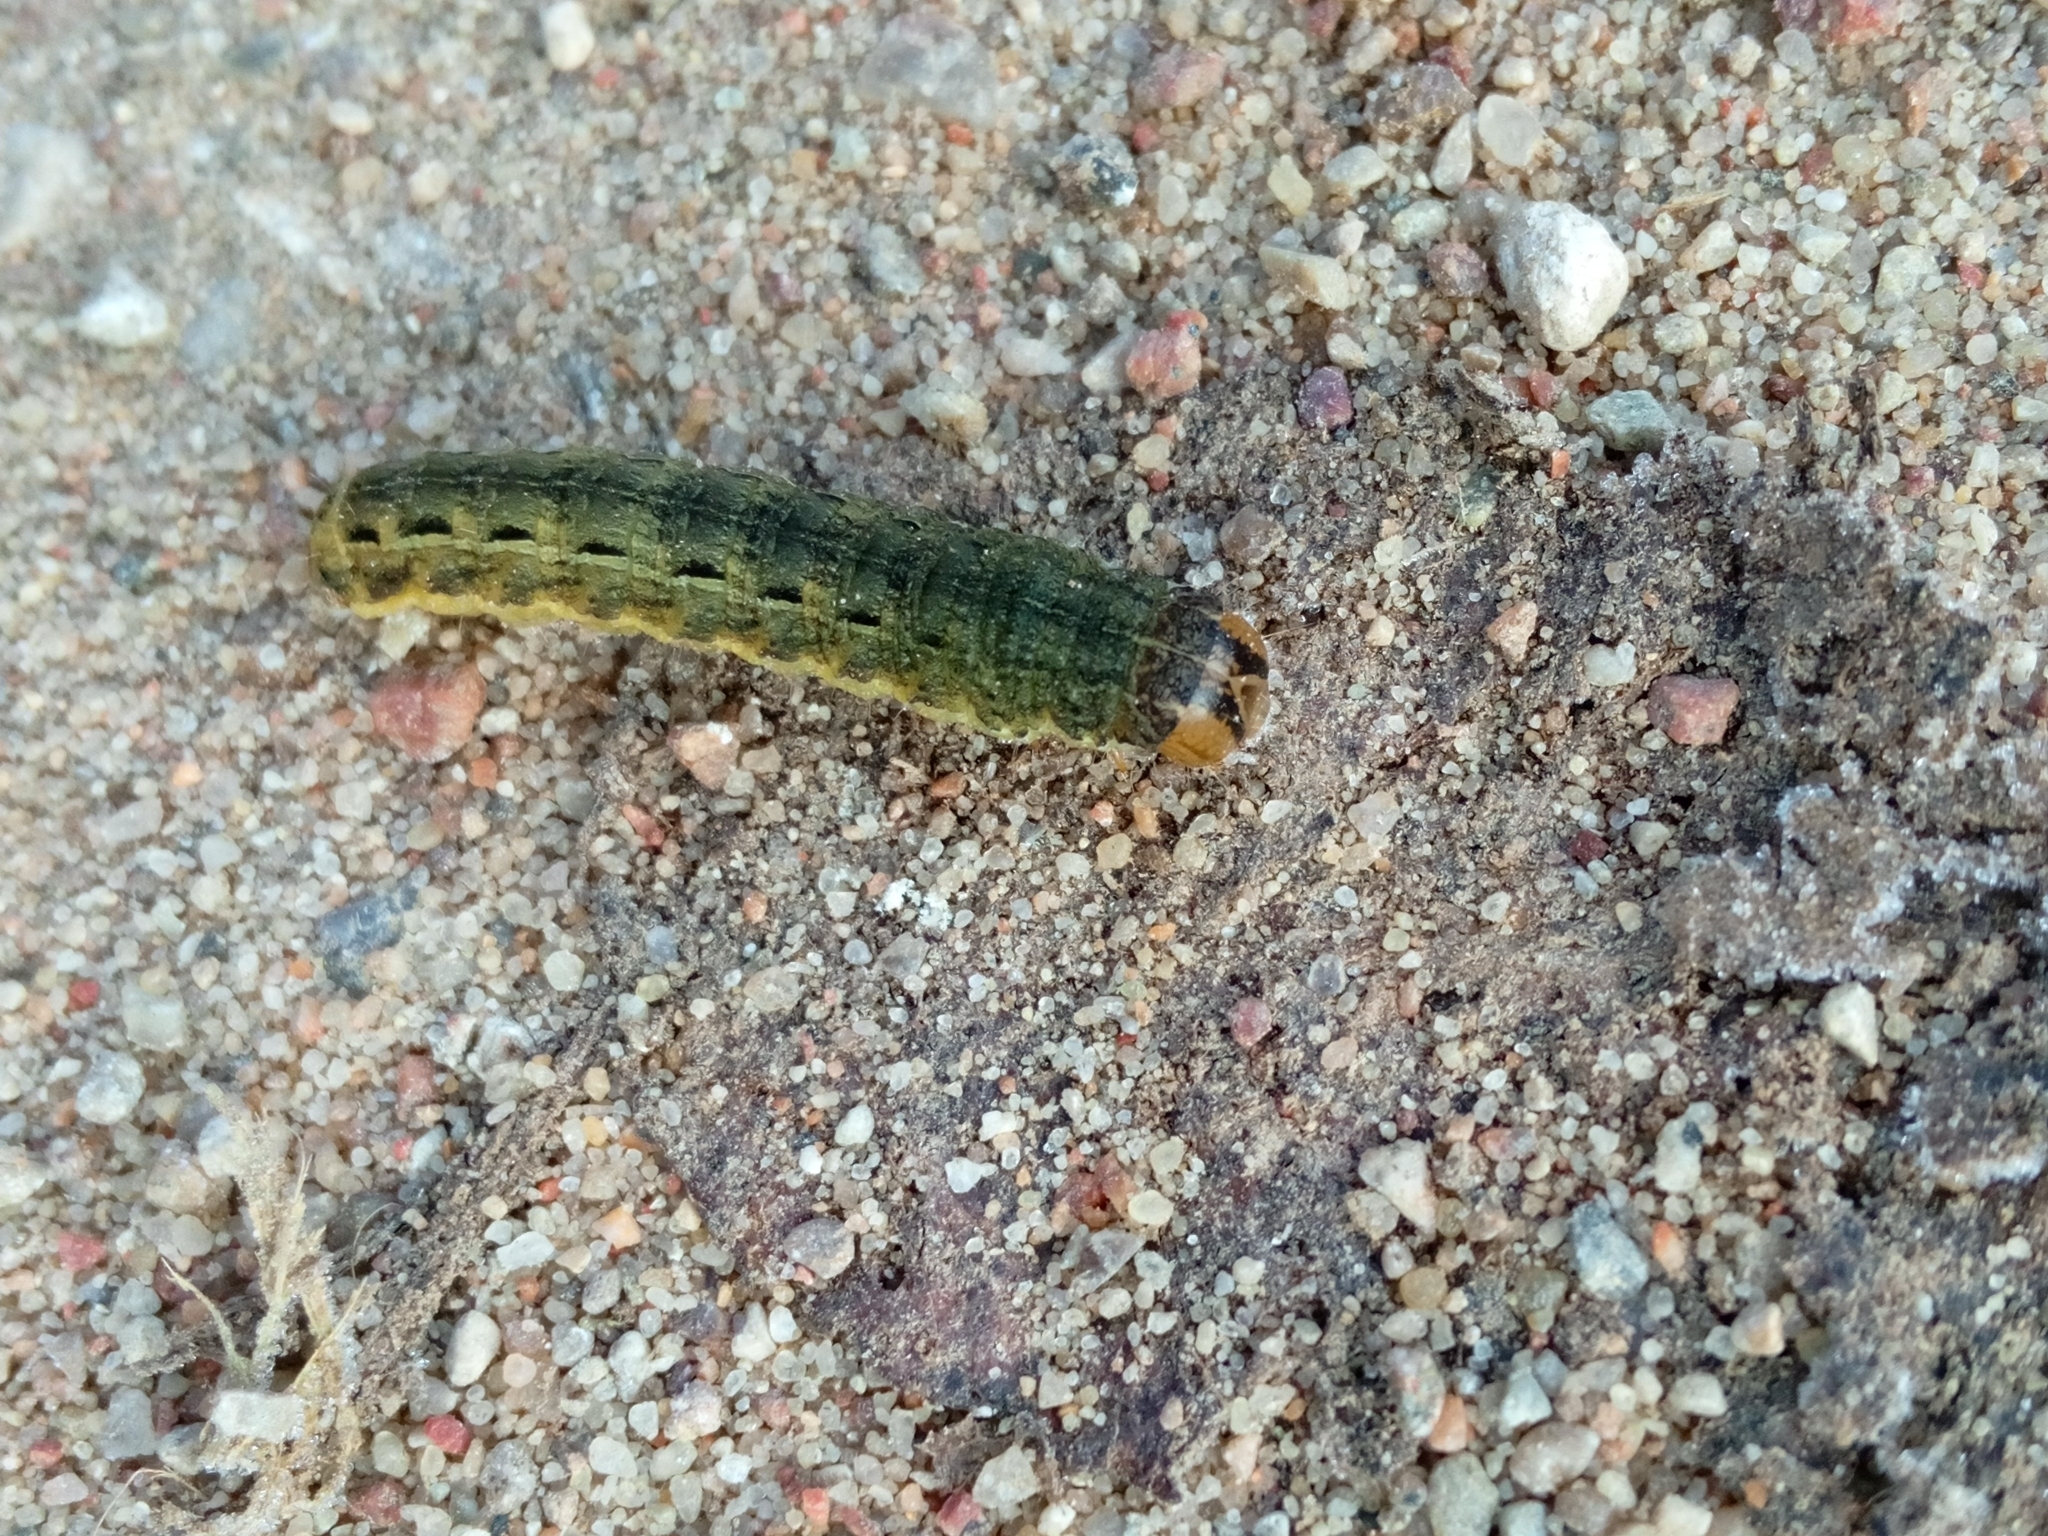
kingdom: Animalia
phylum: Arthropoda
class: Insecta
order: Lepidoptera
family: Noctuidae
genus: Noctua
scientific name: Noctua pronuba
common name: Large yellow underwing
